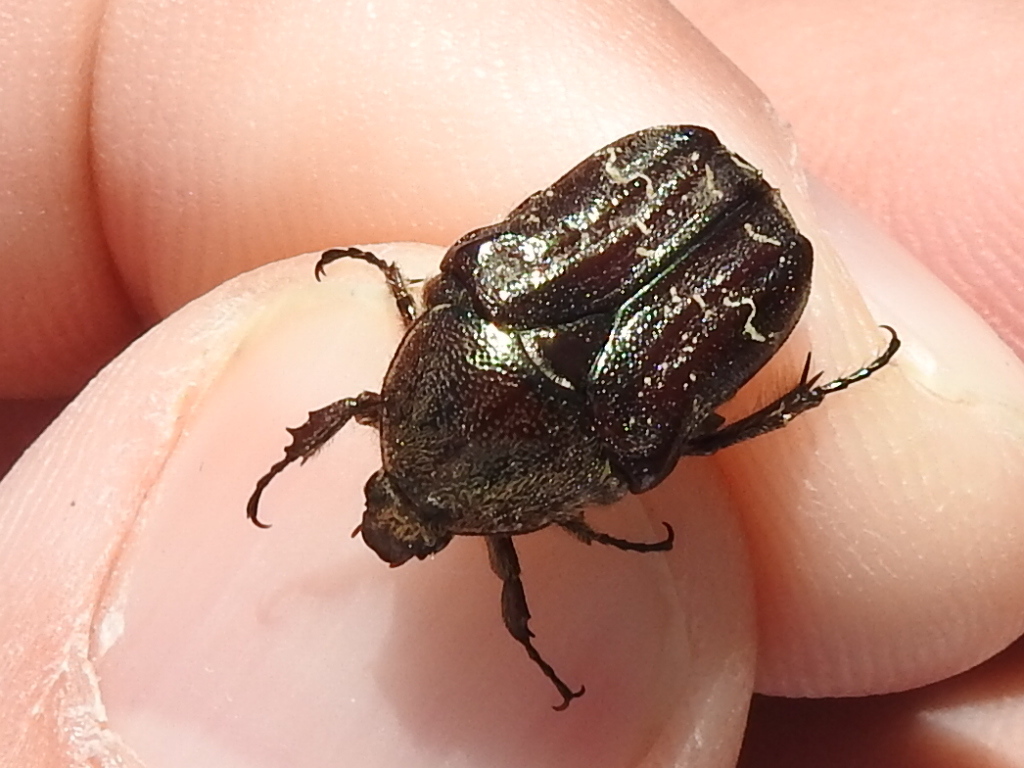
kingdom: Animalia
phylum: Arthropoda
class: Insecta
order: Coleoptera
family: Scarabaeidae
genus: Euphoria
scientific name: Euphoria sepulcralis
